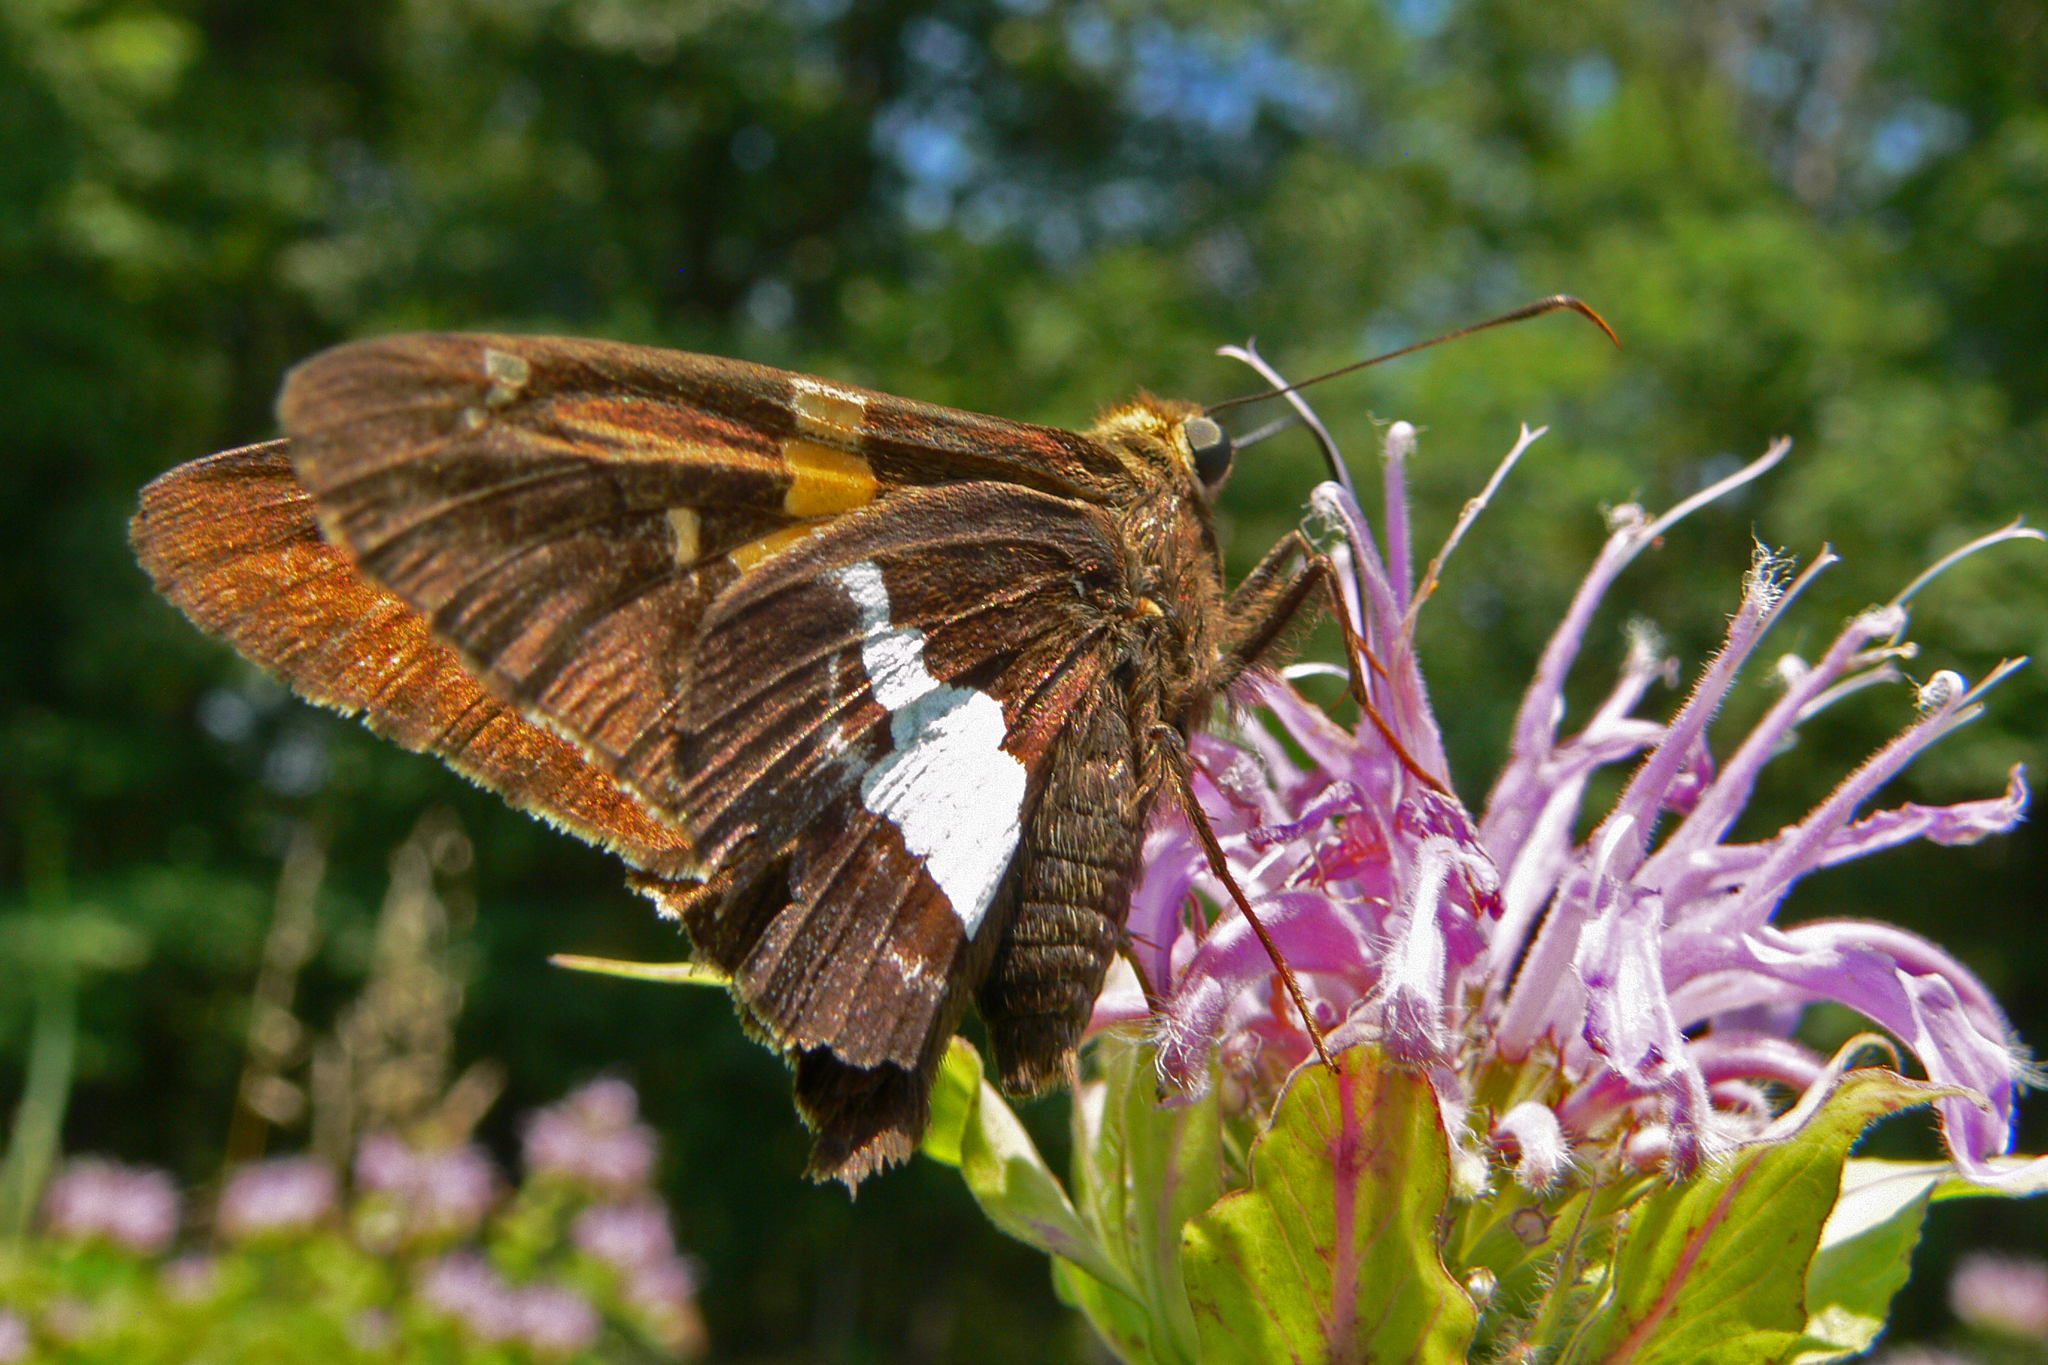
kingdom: Animalia
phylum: Arthropoda
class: Insecta
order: Lepidoptera
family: Hesperiidae
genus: Epargyreus
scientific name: Epargyreus clarus
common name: Silver-spotted skipper
